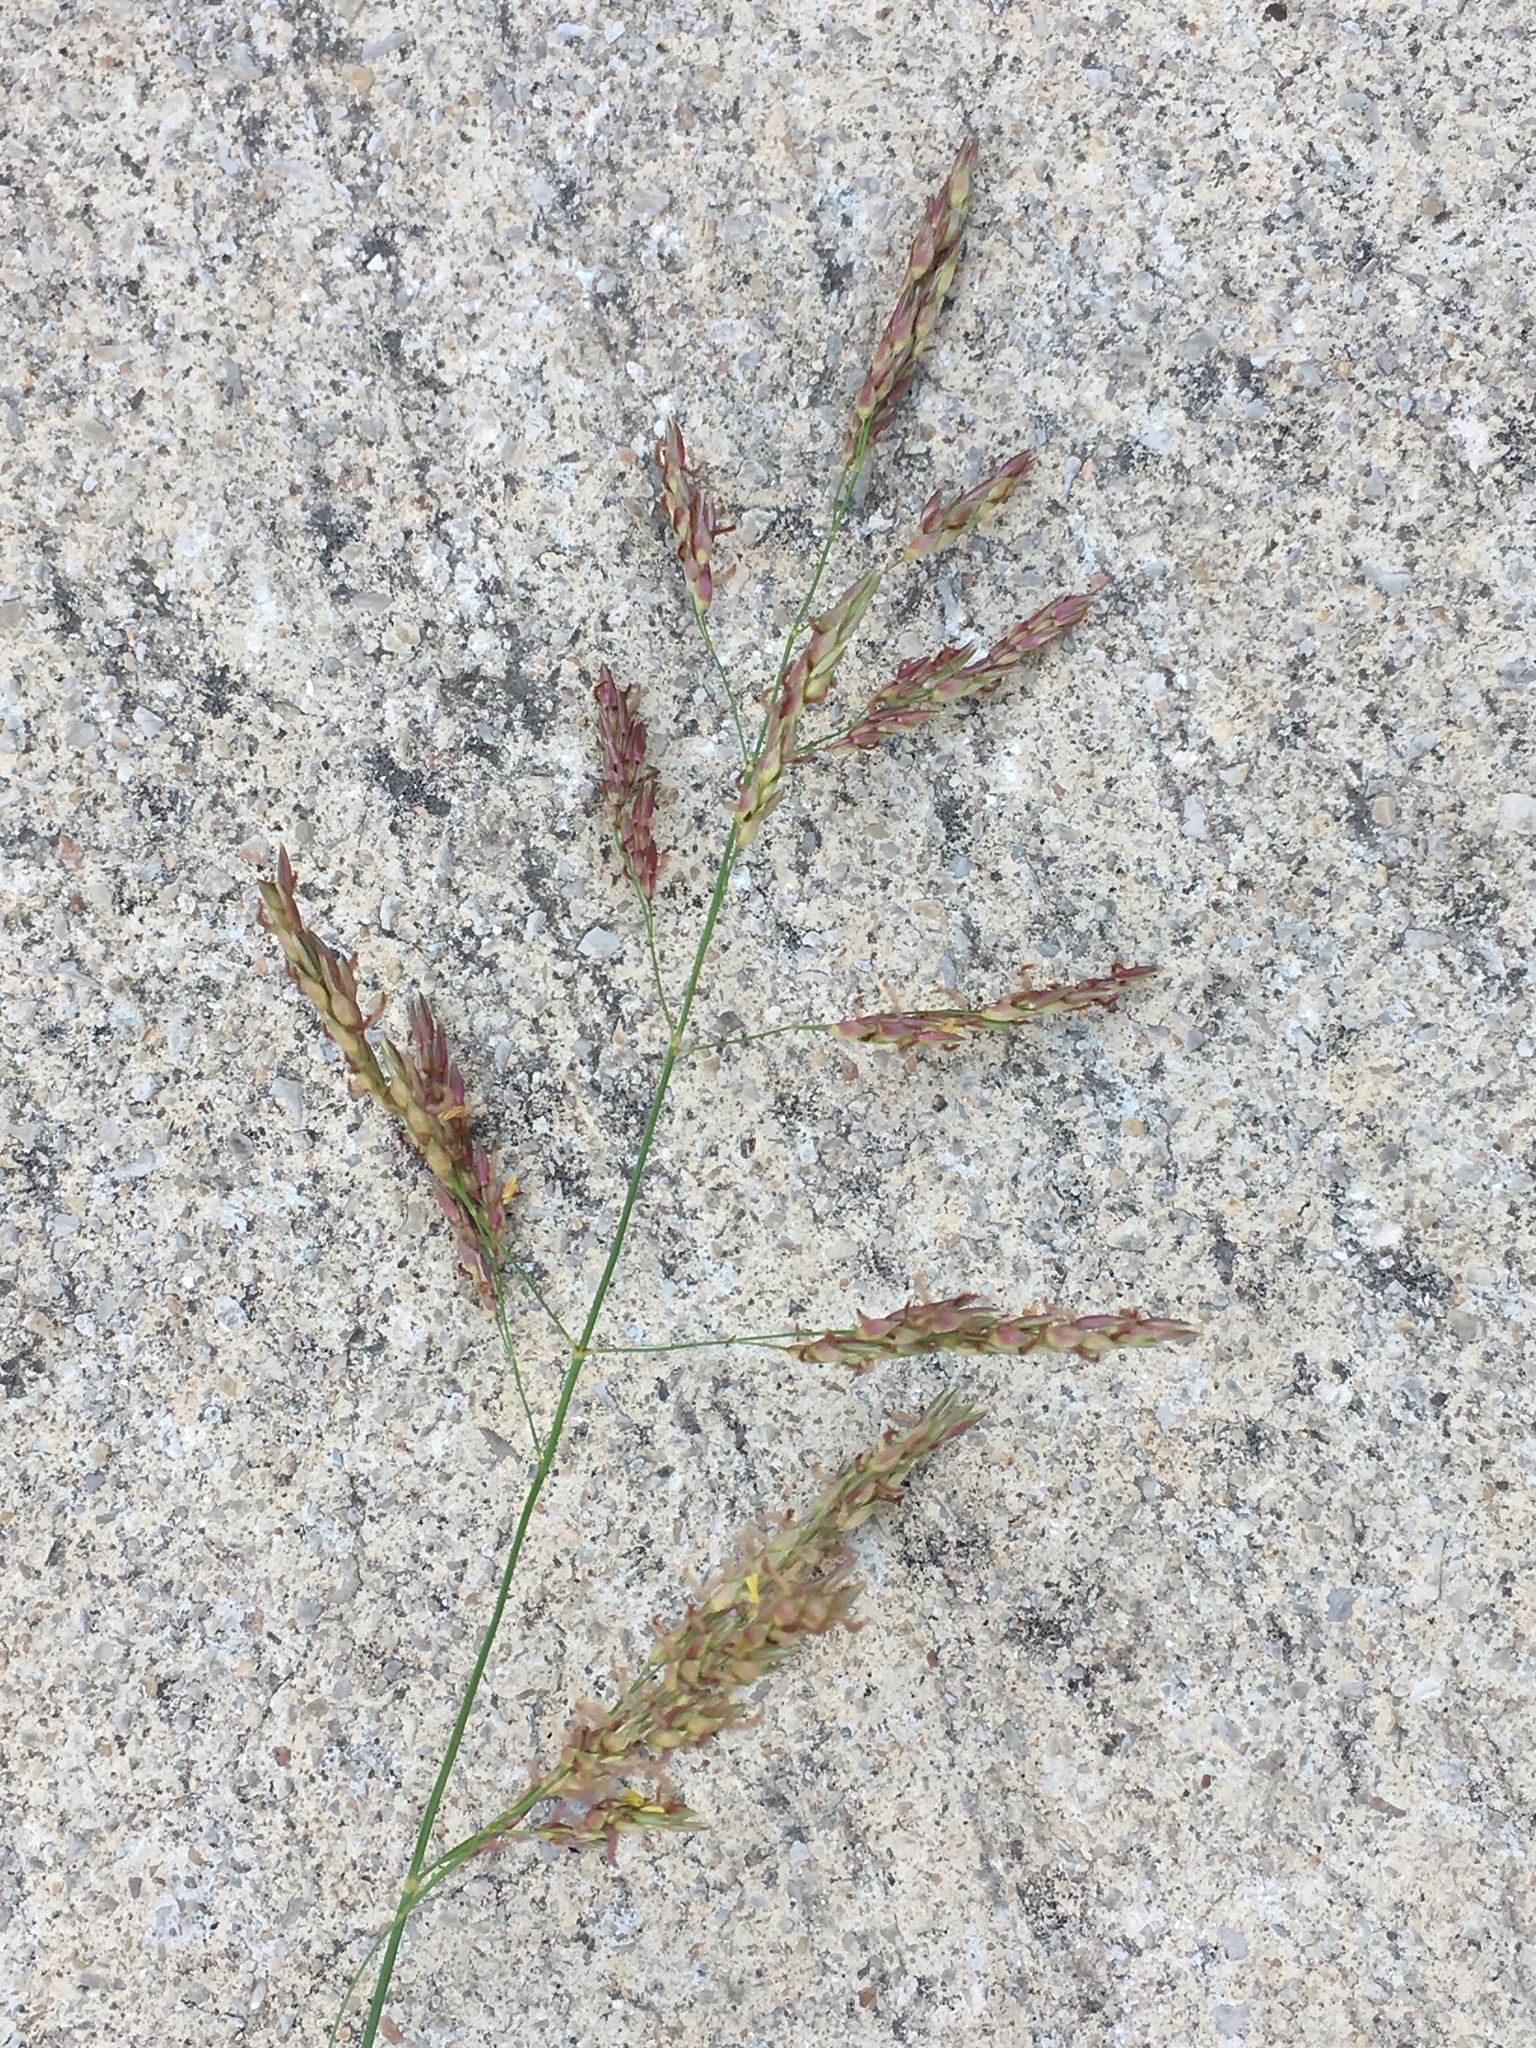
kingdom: Plantae
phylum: Tracheophyta
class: Liliopsida
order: Poales
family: Poaceae
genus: Sorghum
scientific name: Sorghum halepense
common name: Johnson-grass
